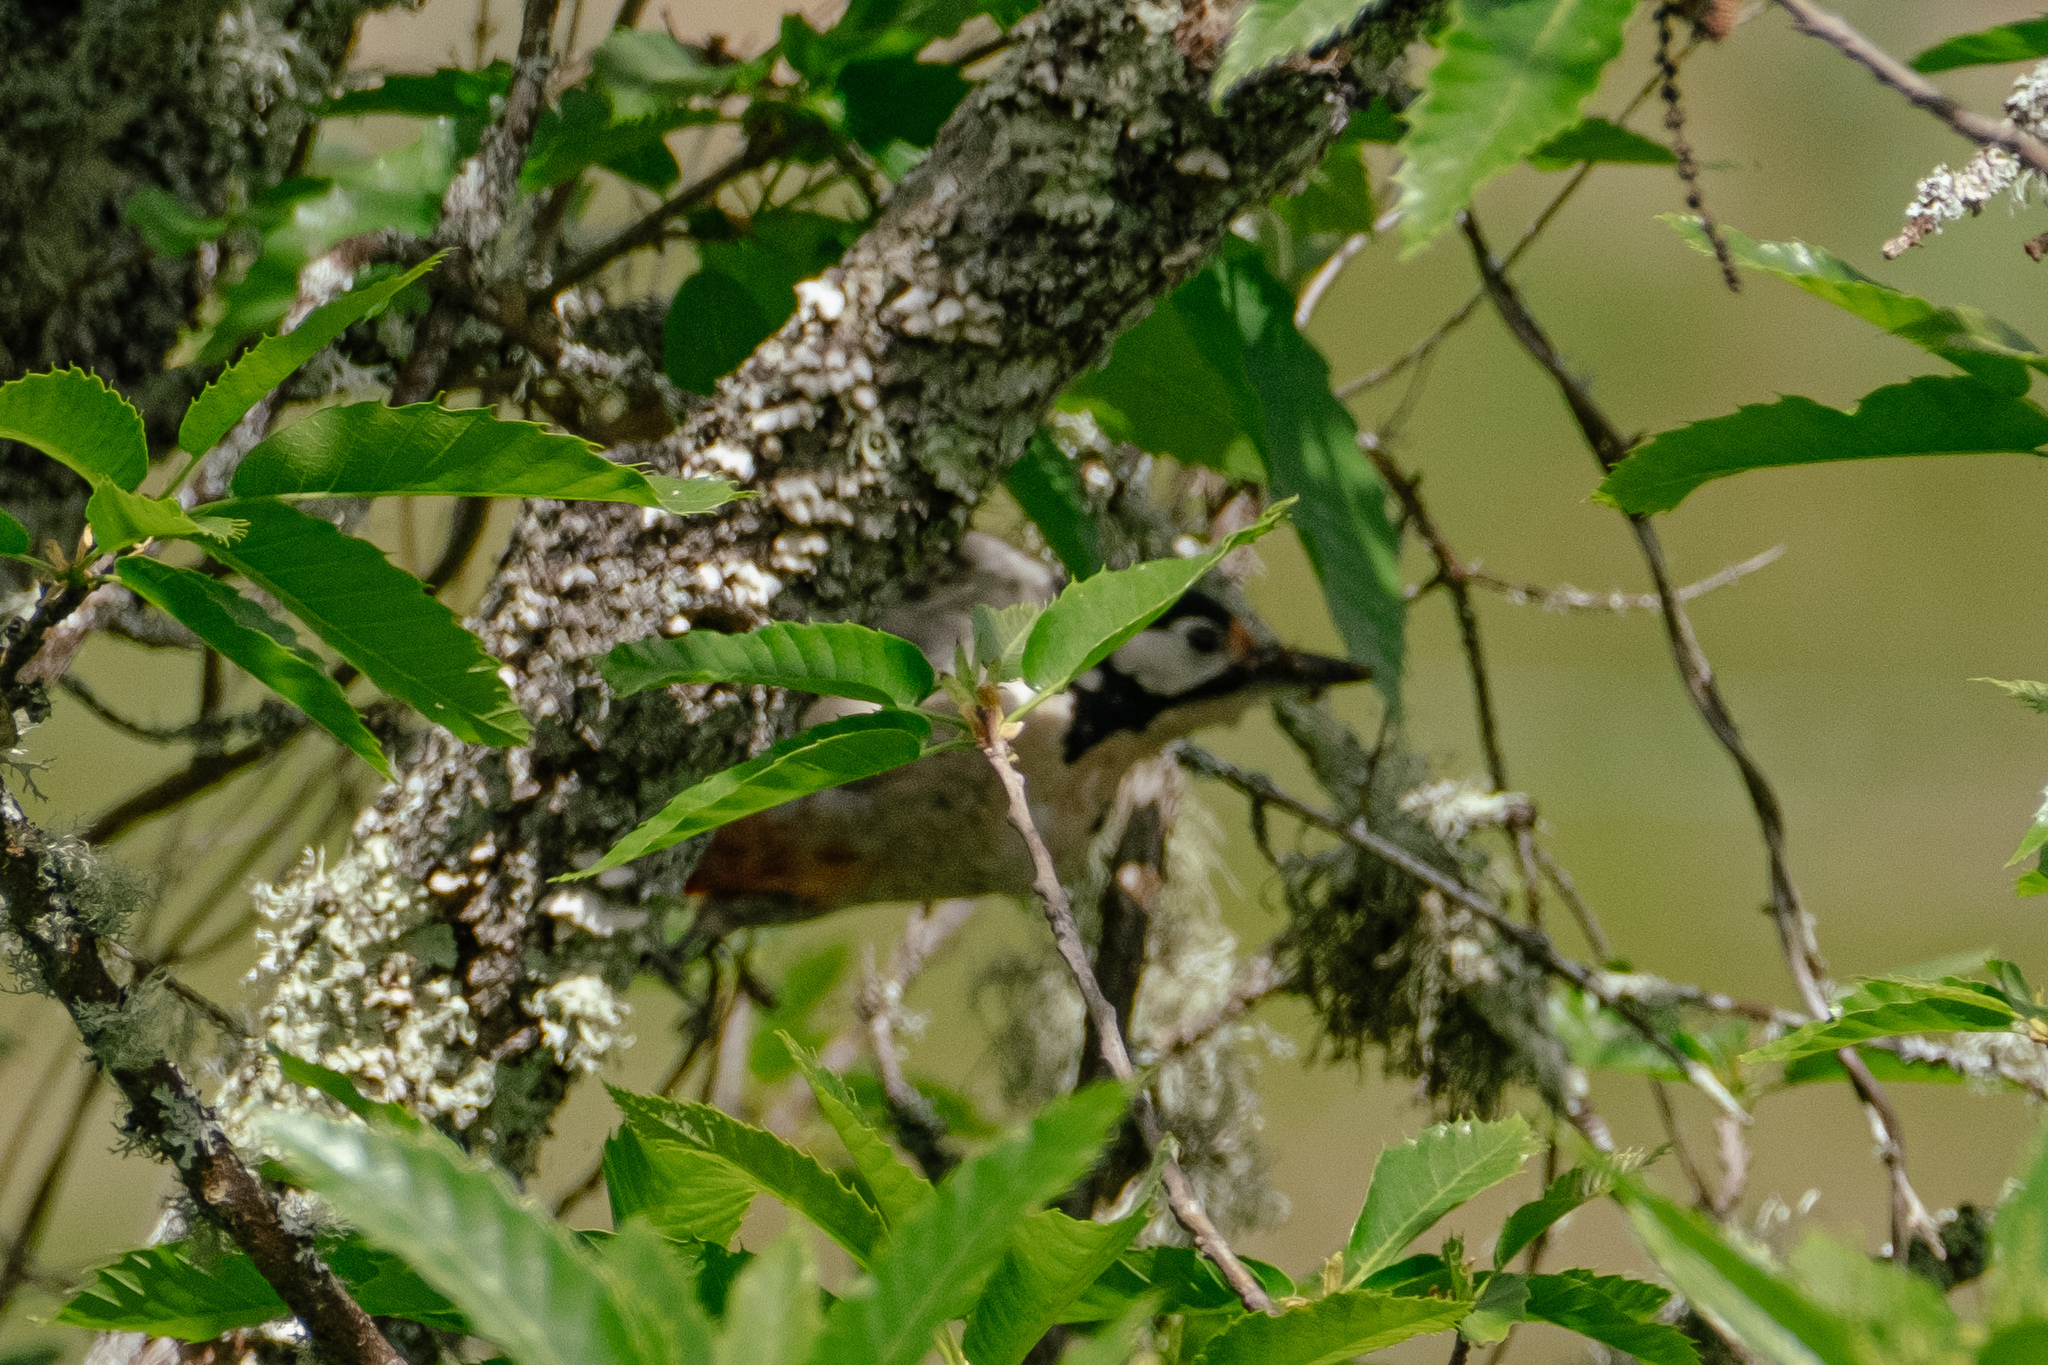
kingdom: Animalia
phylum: Chordata
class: Aves
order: Piciformes
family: Picidae
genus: Dendrocopos
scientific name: Dendrocopos major
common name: Great spotted woodpecker
